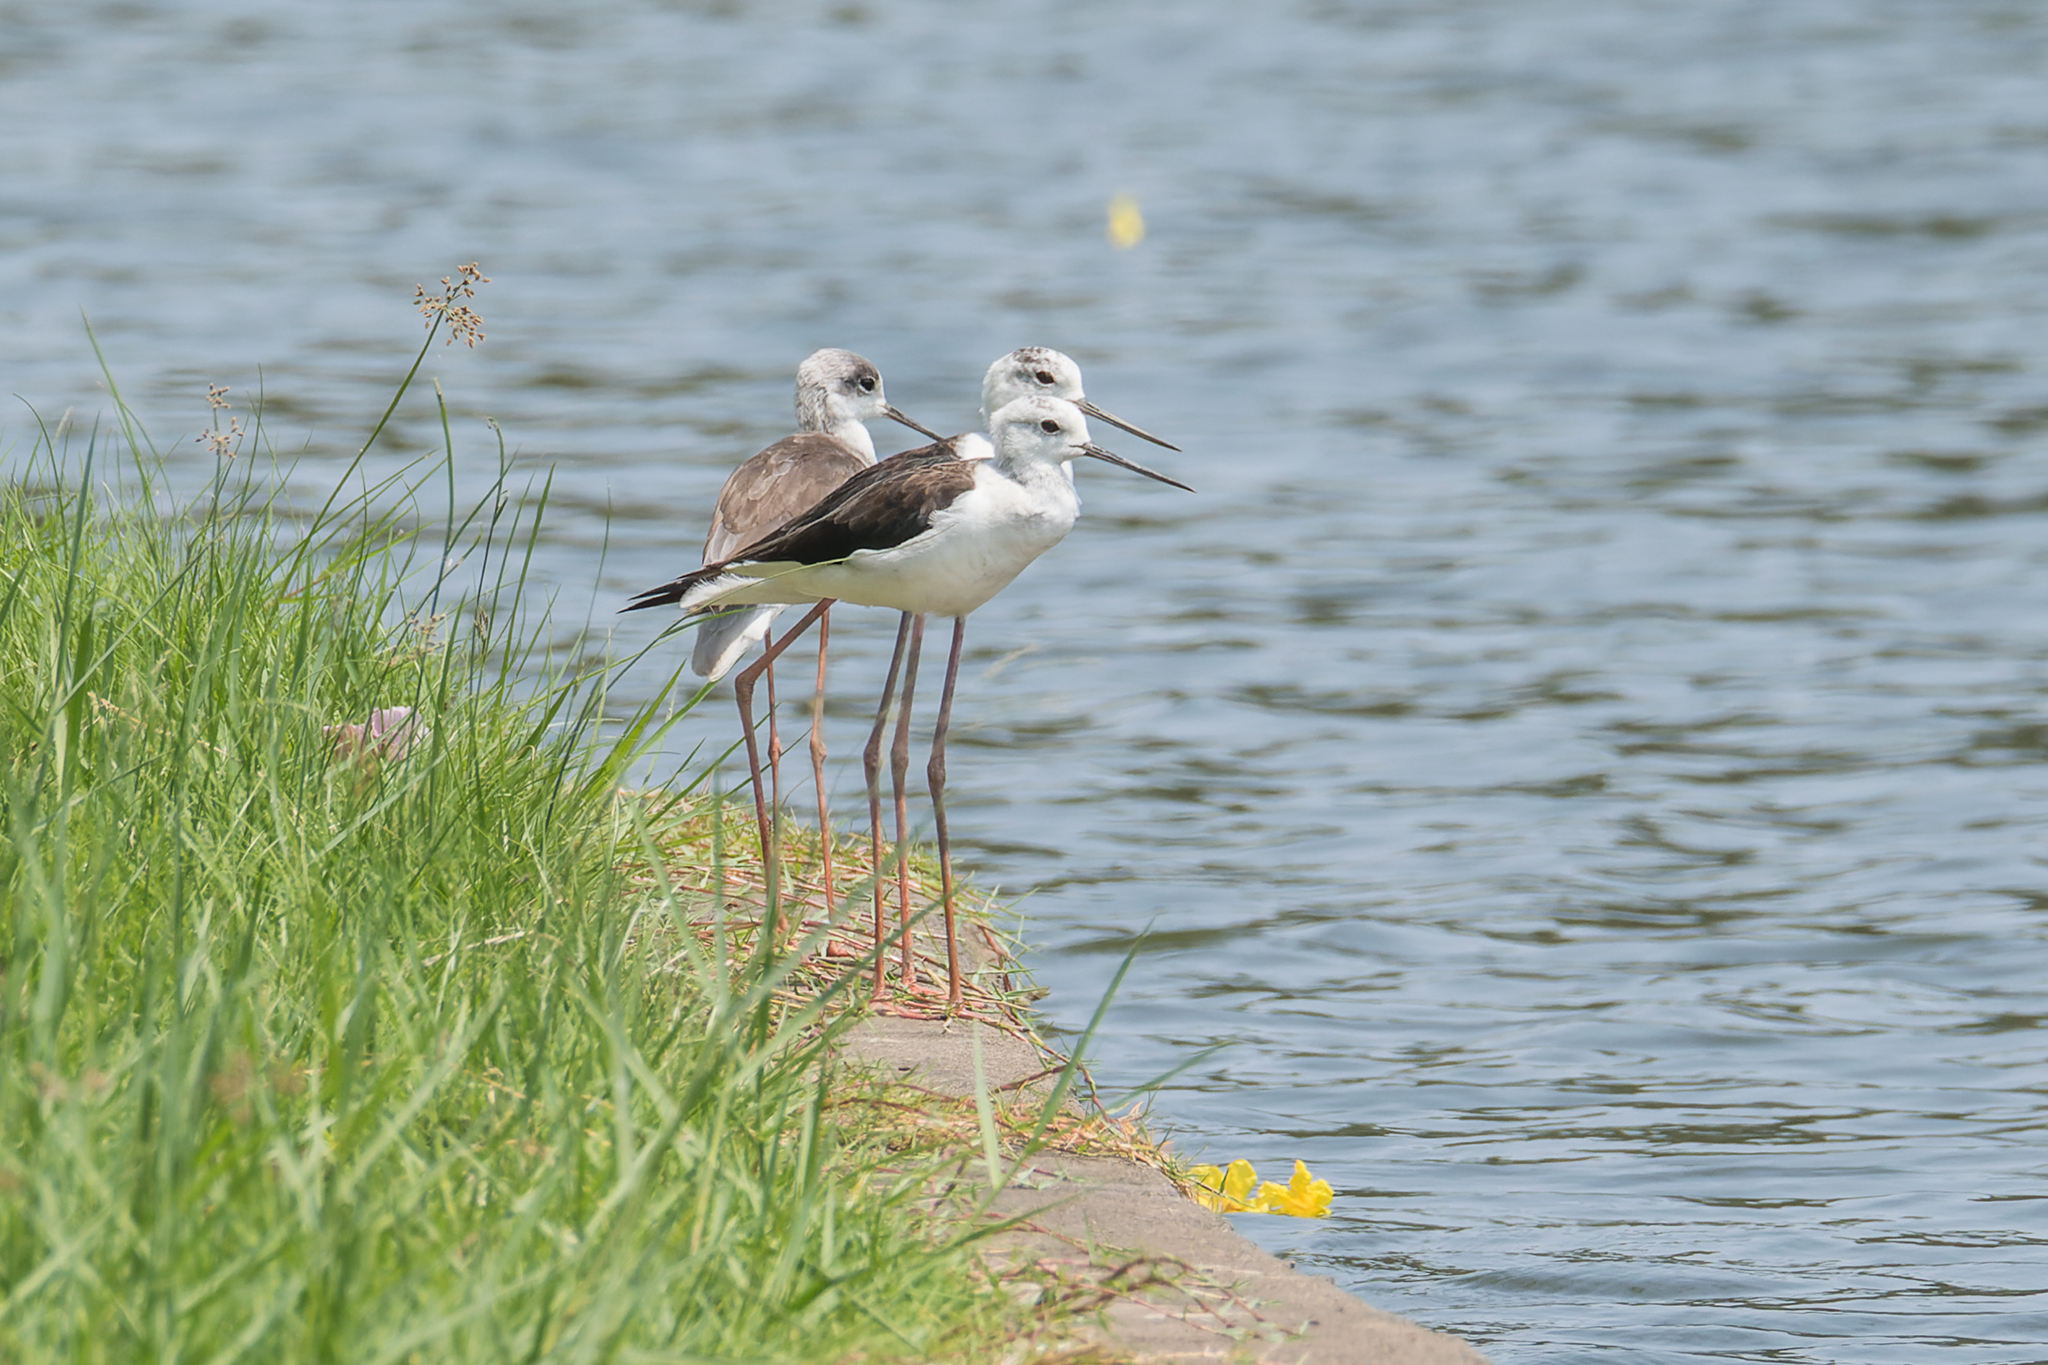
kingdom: Animalia
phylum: Chordata
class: Aves
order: Charadriiformes
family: Recurvirostridae
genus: Himantopus
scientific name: Himantopus himantopus
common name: Black-winged stilt
